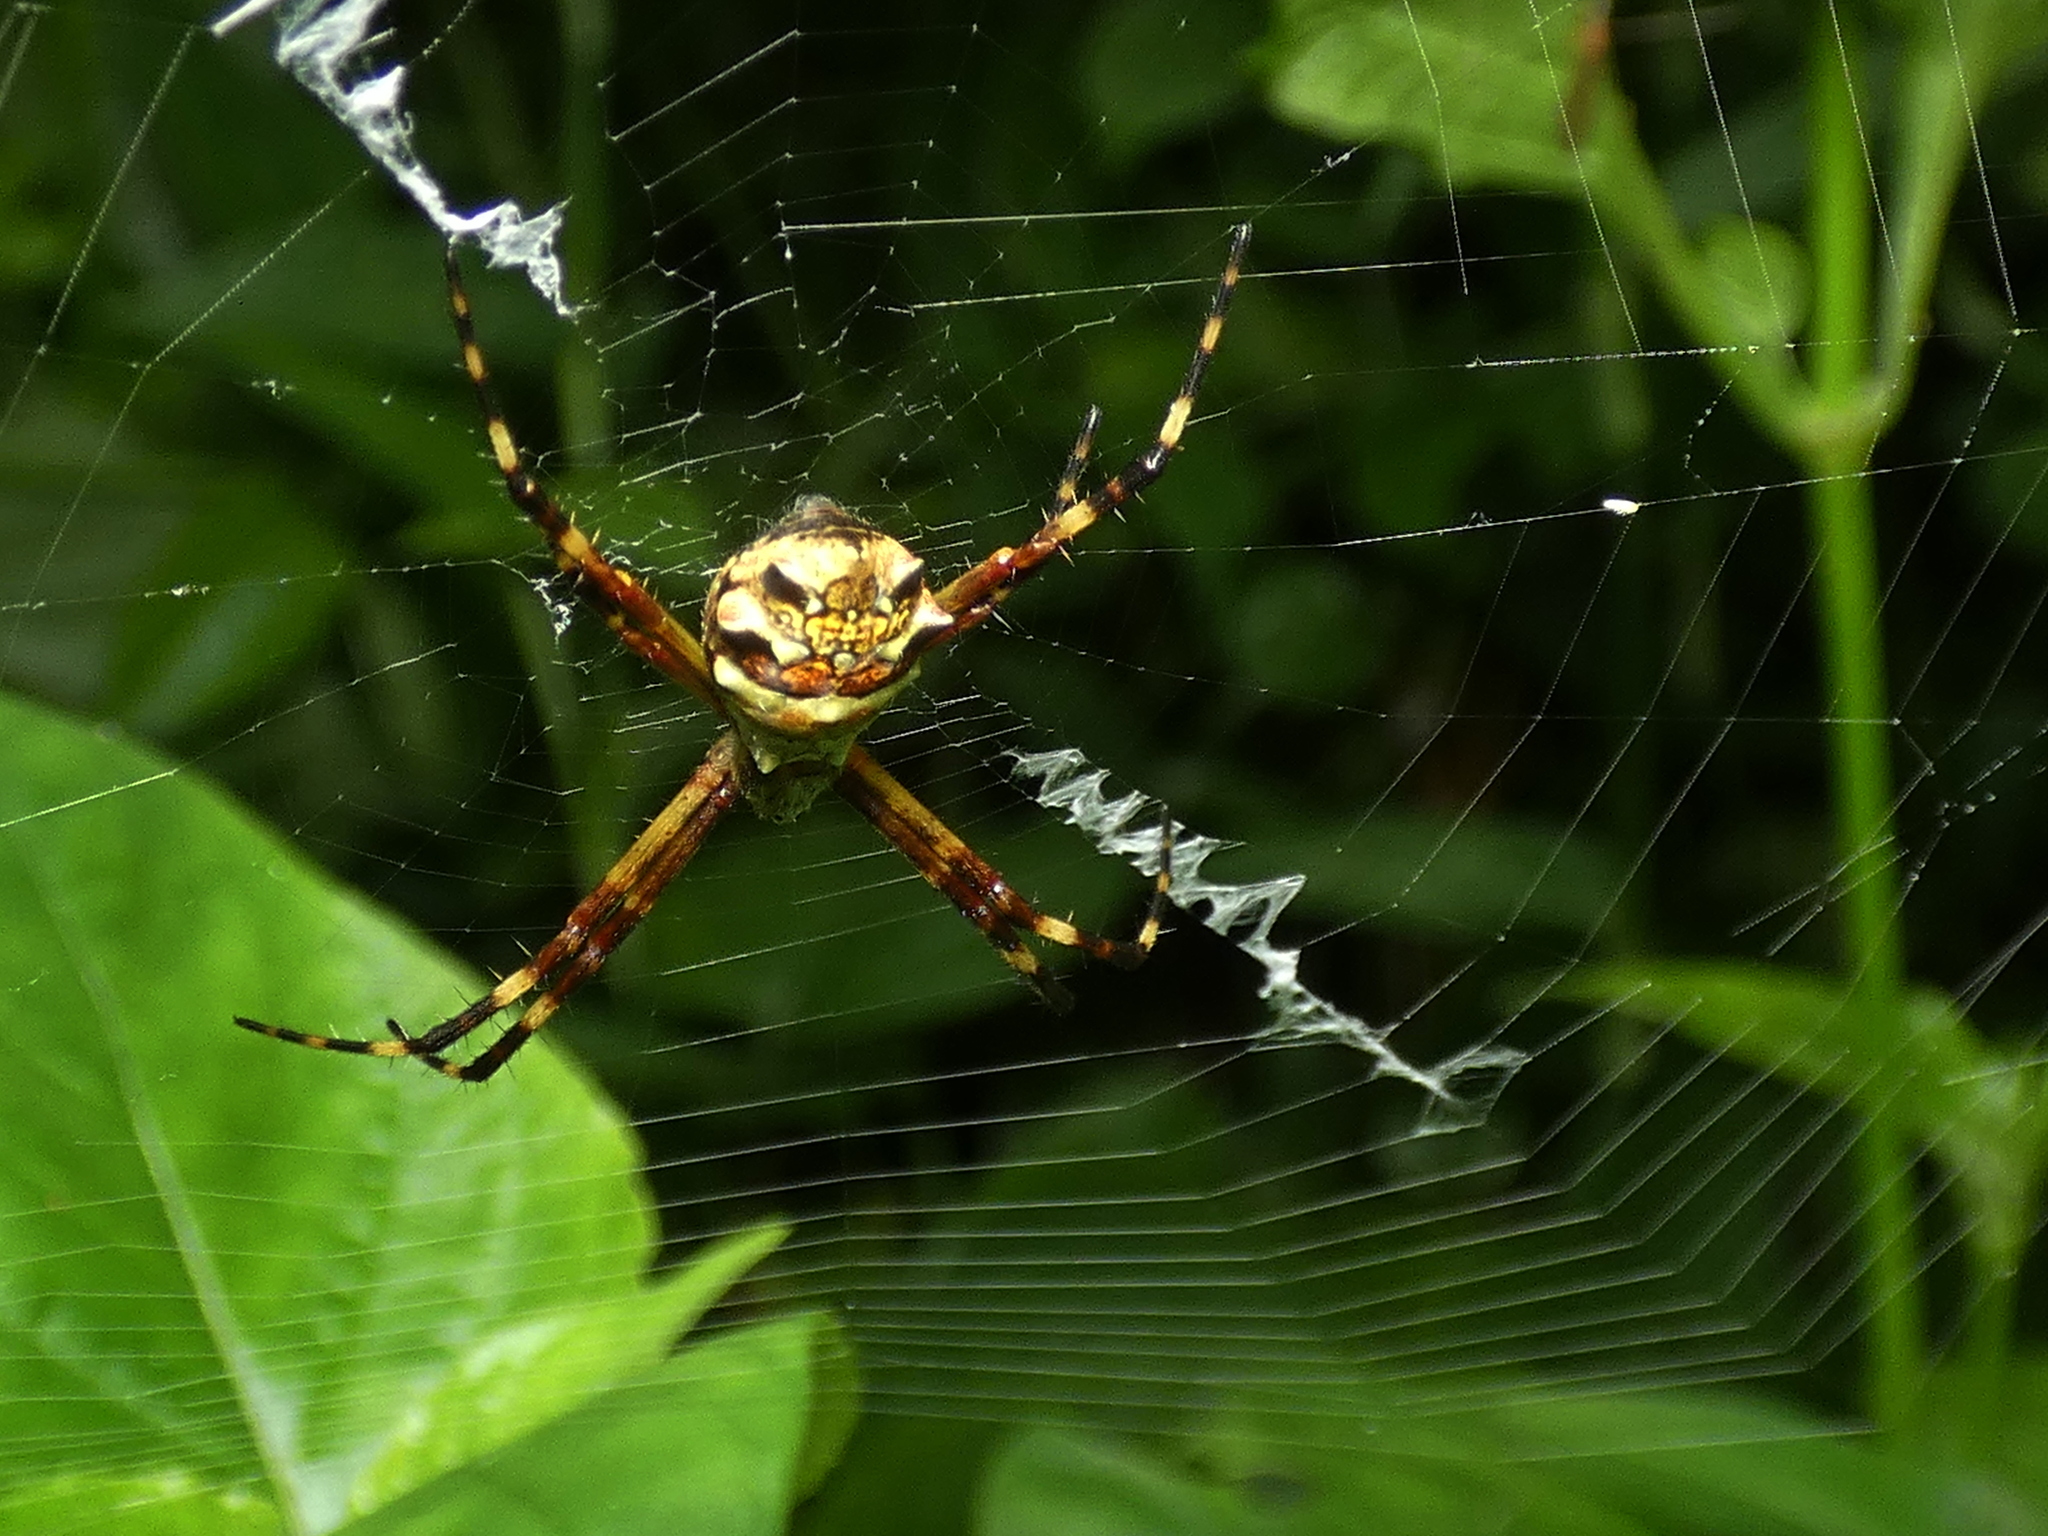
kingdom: Animalia
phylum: Arthropoda
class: Arachnida
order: Araneae
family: Araneidae
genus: Argiope
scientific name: Argiope argentata
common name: Orb weavers
